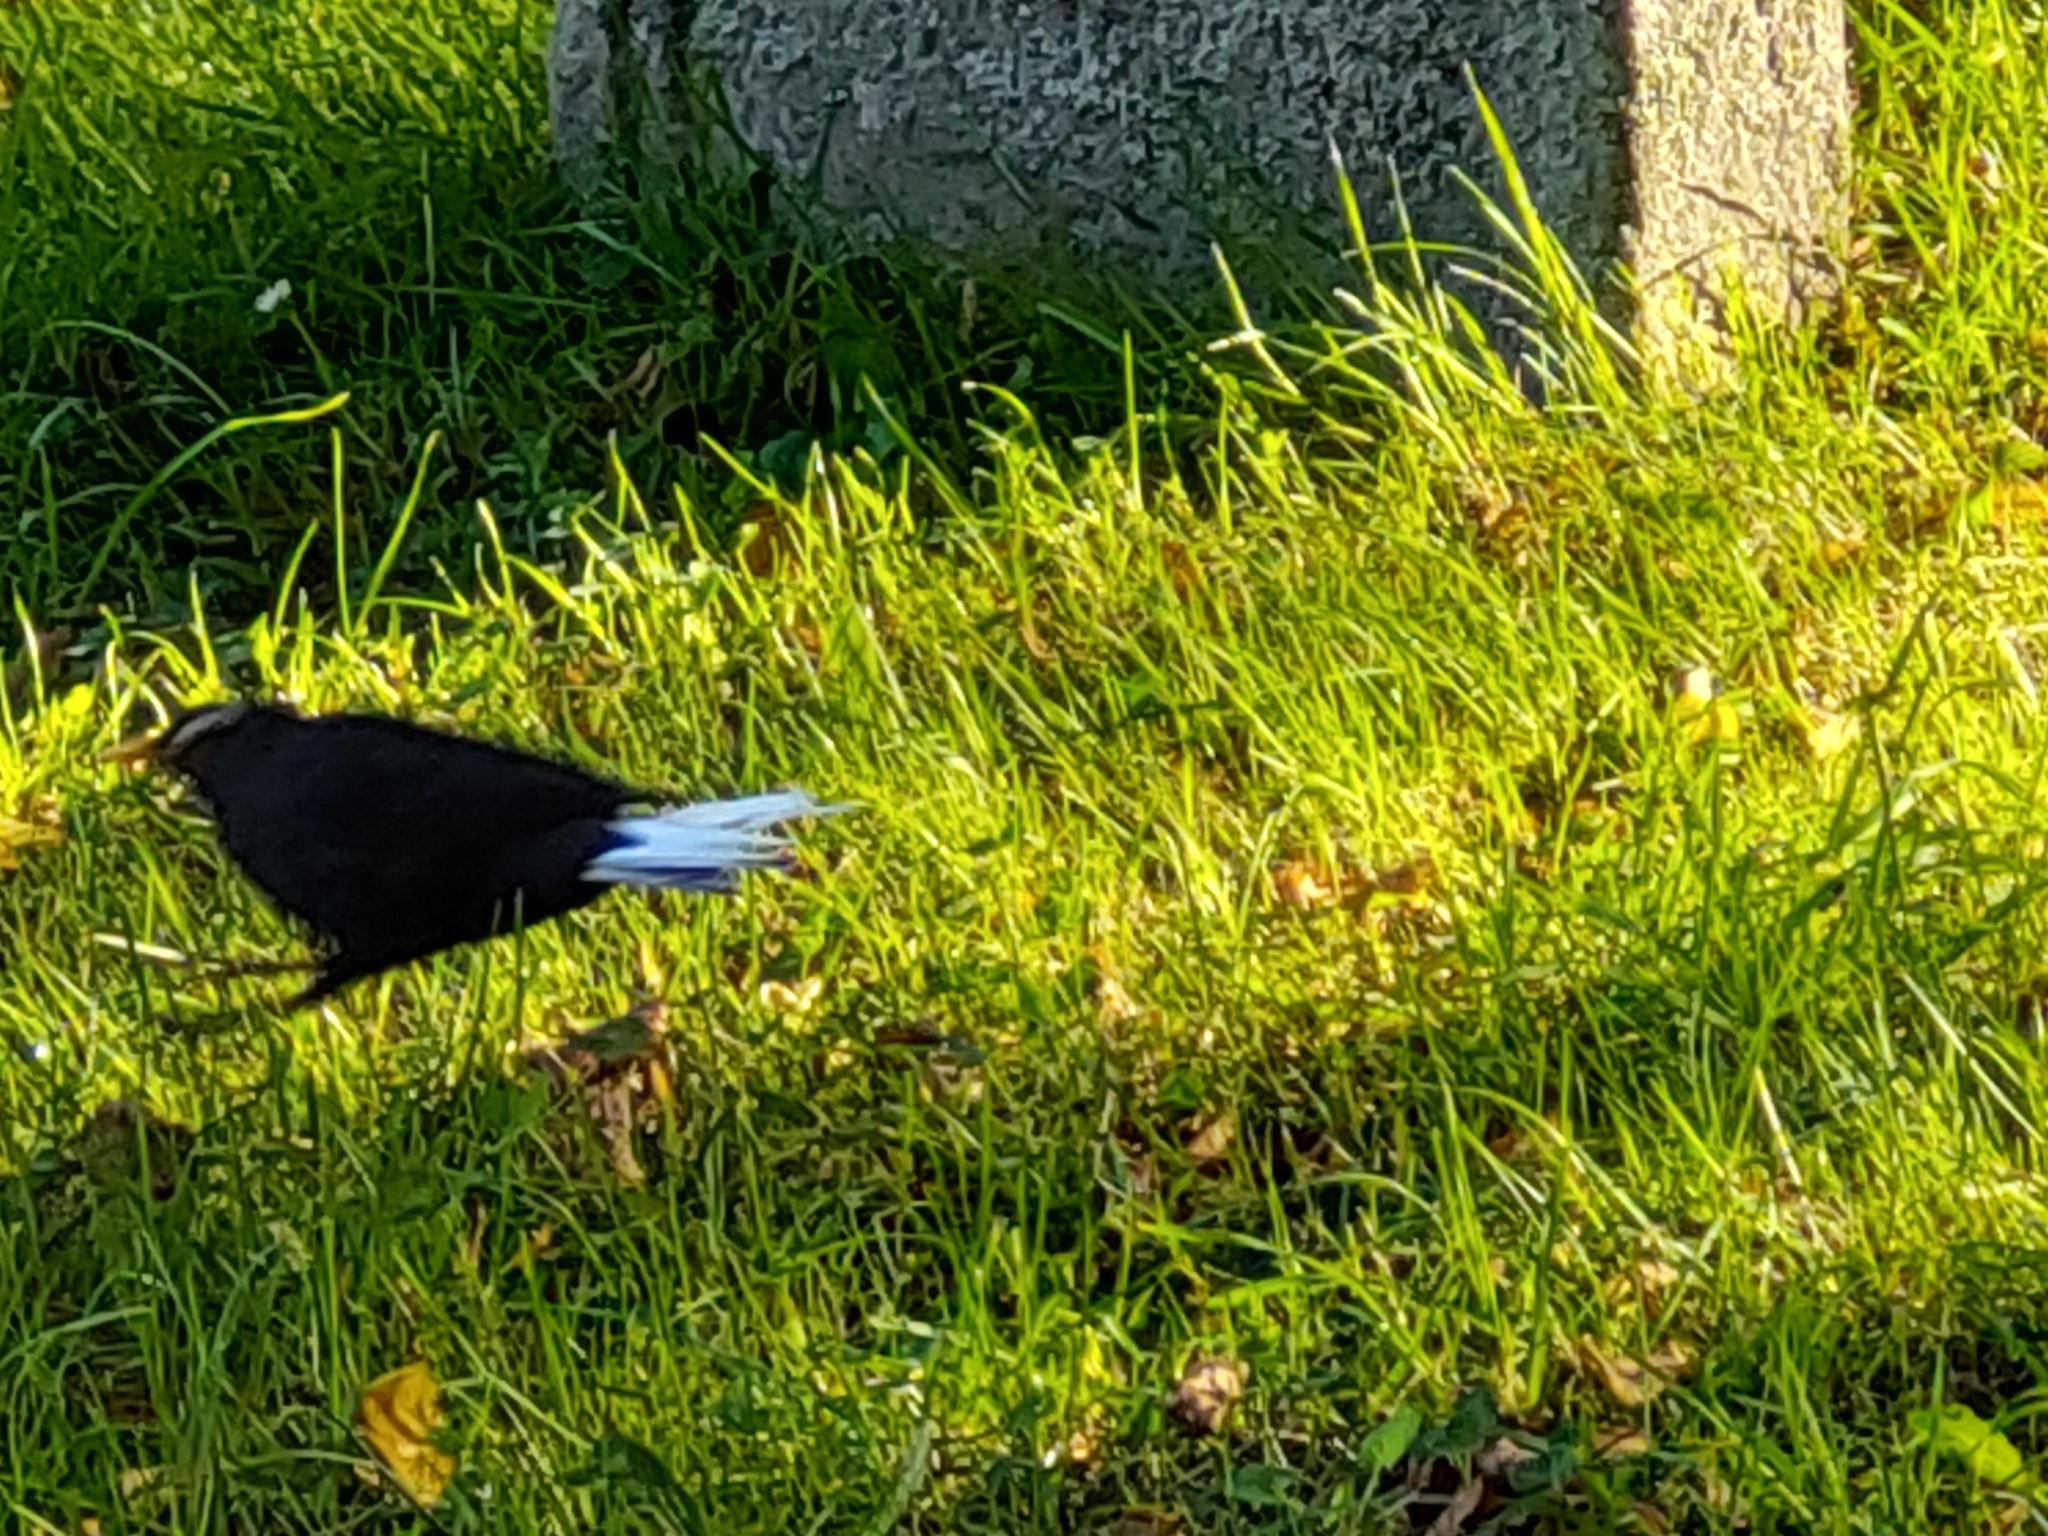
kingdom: Animalia
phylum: Chordata
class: Aves
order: Passeriformes
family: Turdidae
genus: Turdus
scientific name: Turdus merula
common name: Common blackbird
